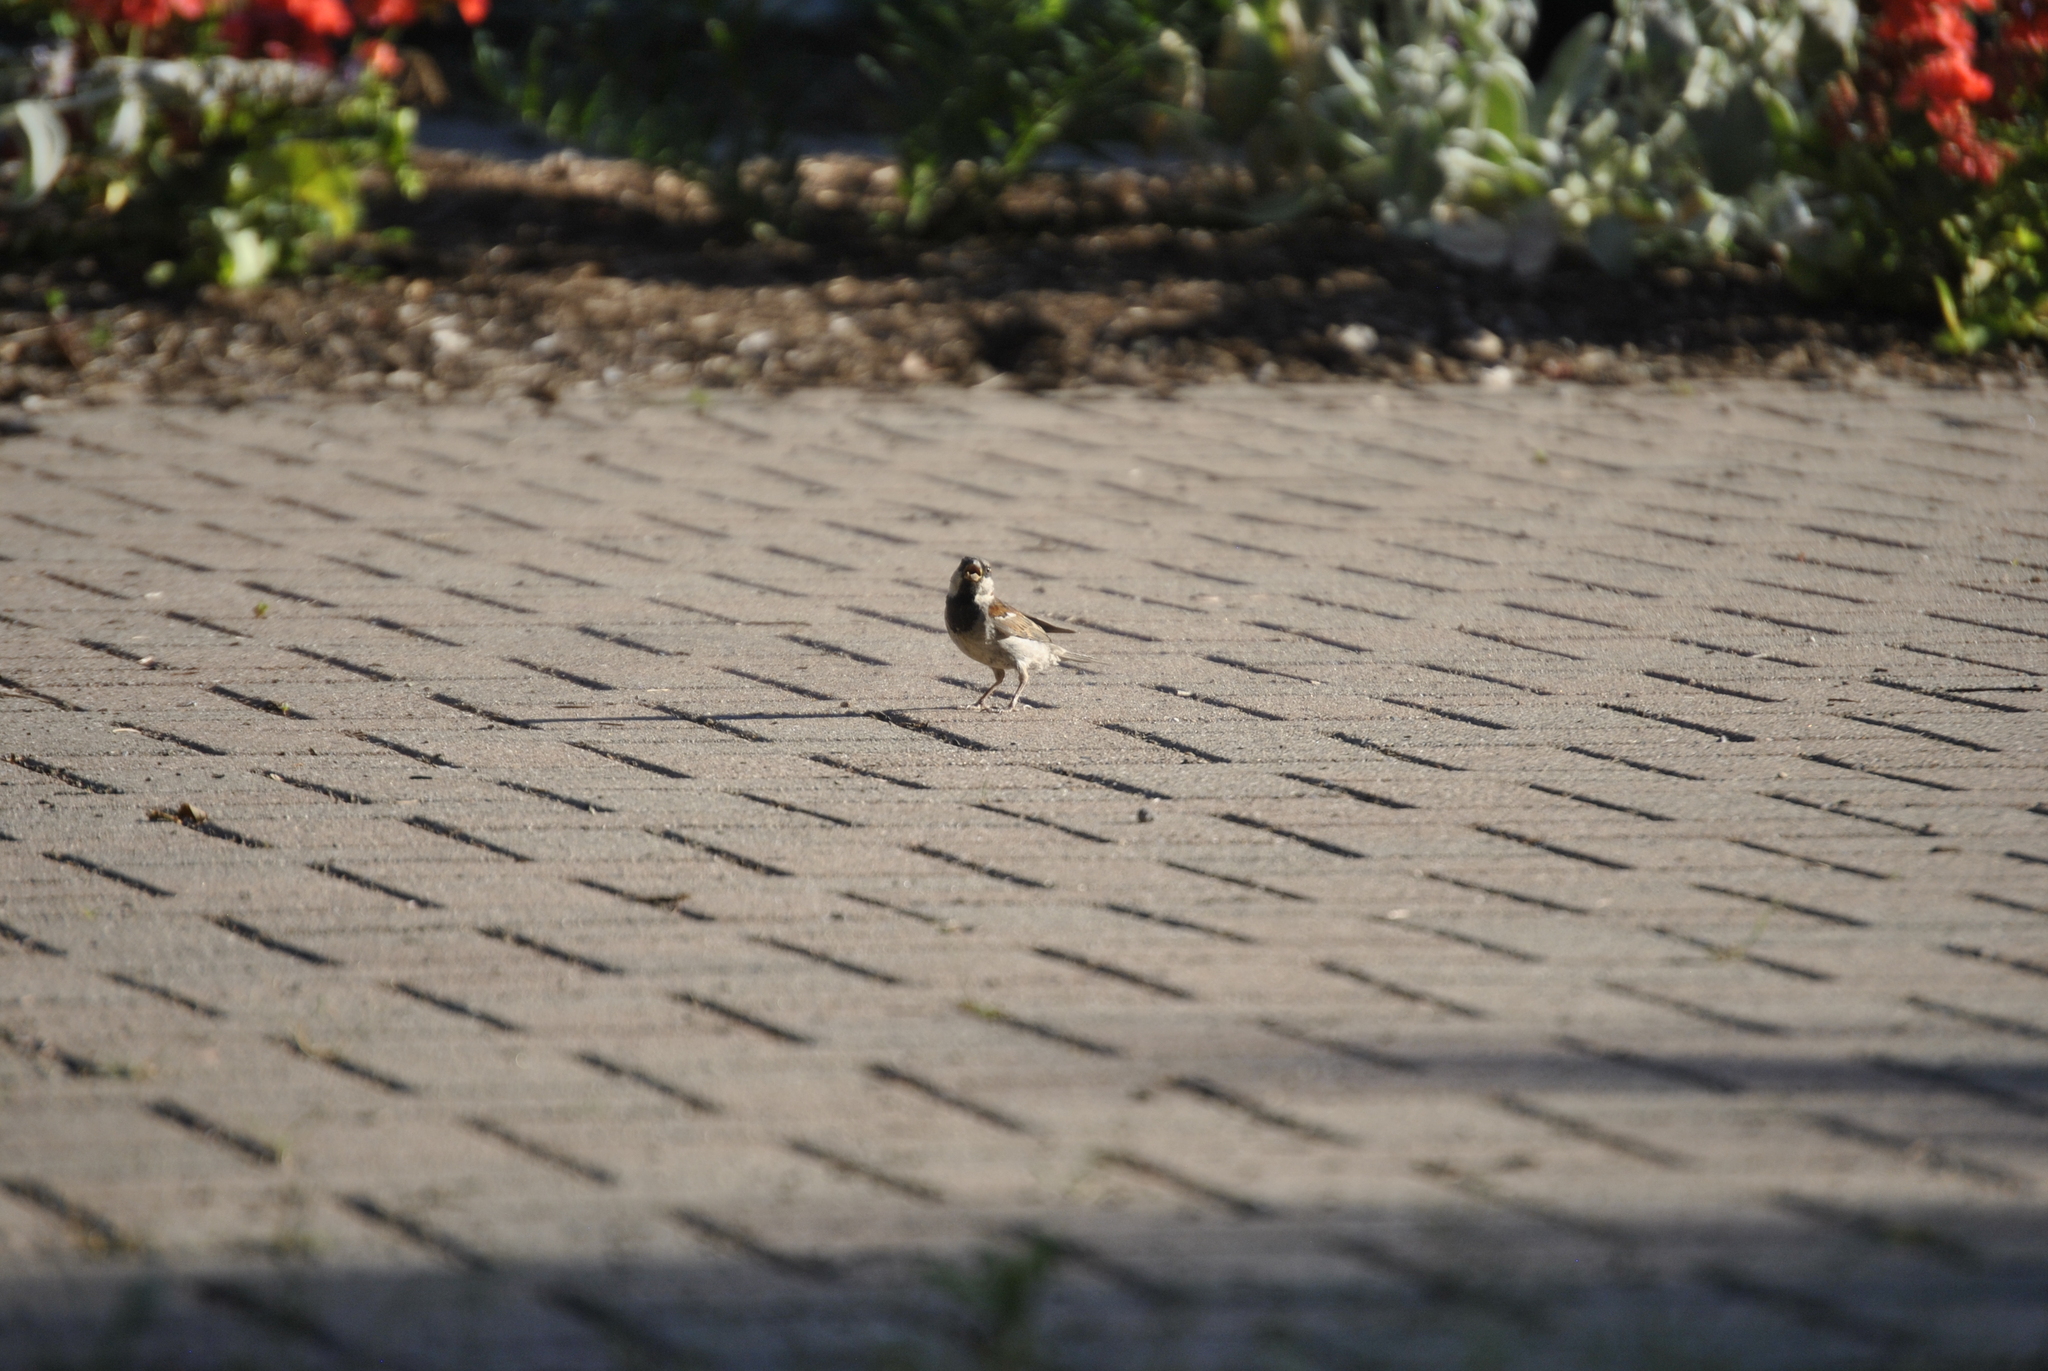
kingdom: Animalia
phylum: Chordata
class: Aves
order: Passeriformes
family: Passeridae
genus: Passer
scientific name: Passer domesticus
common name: House sparrow
